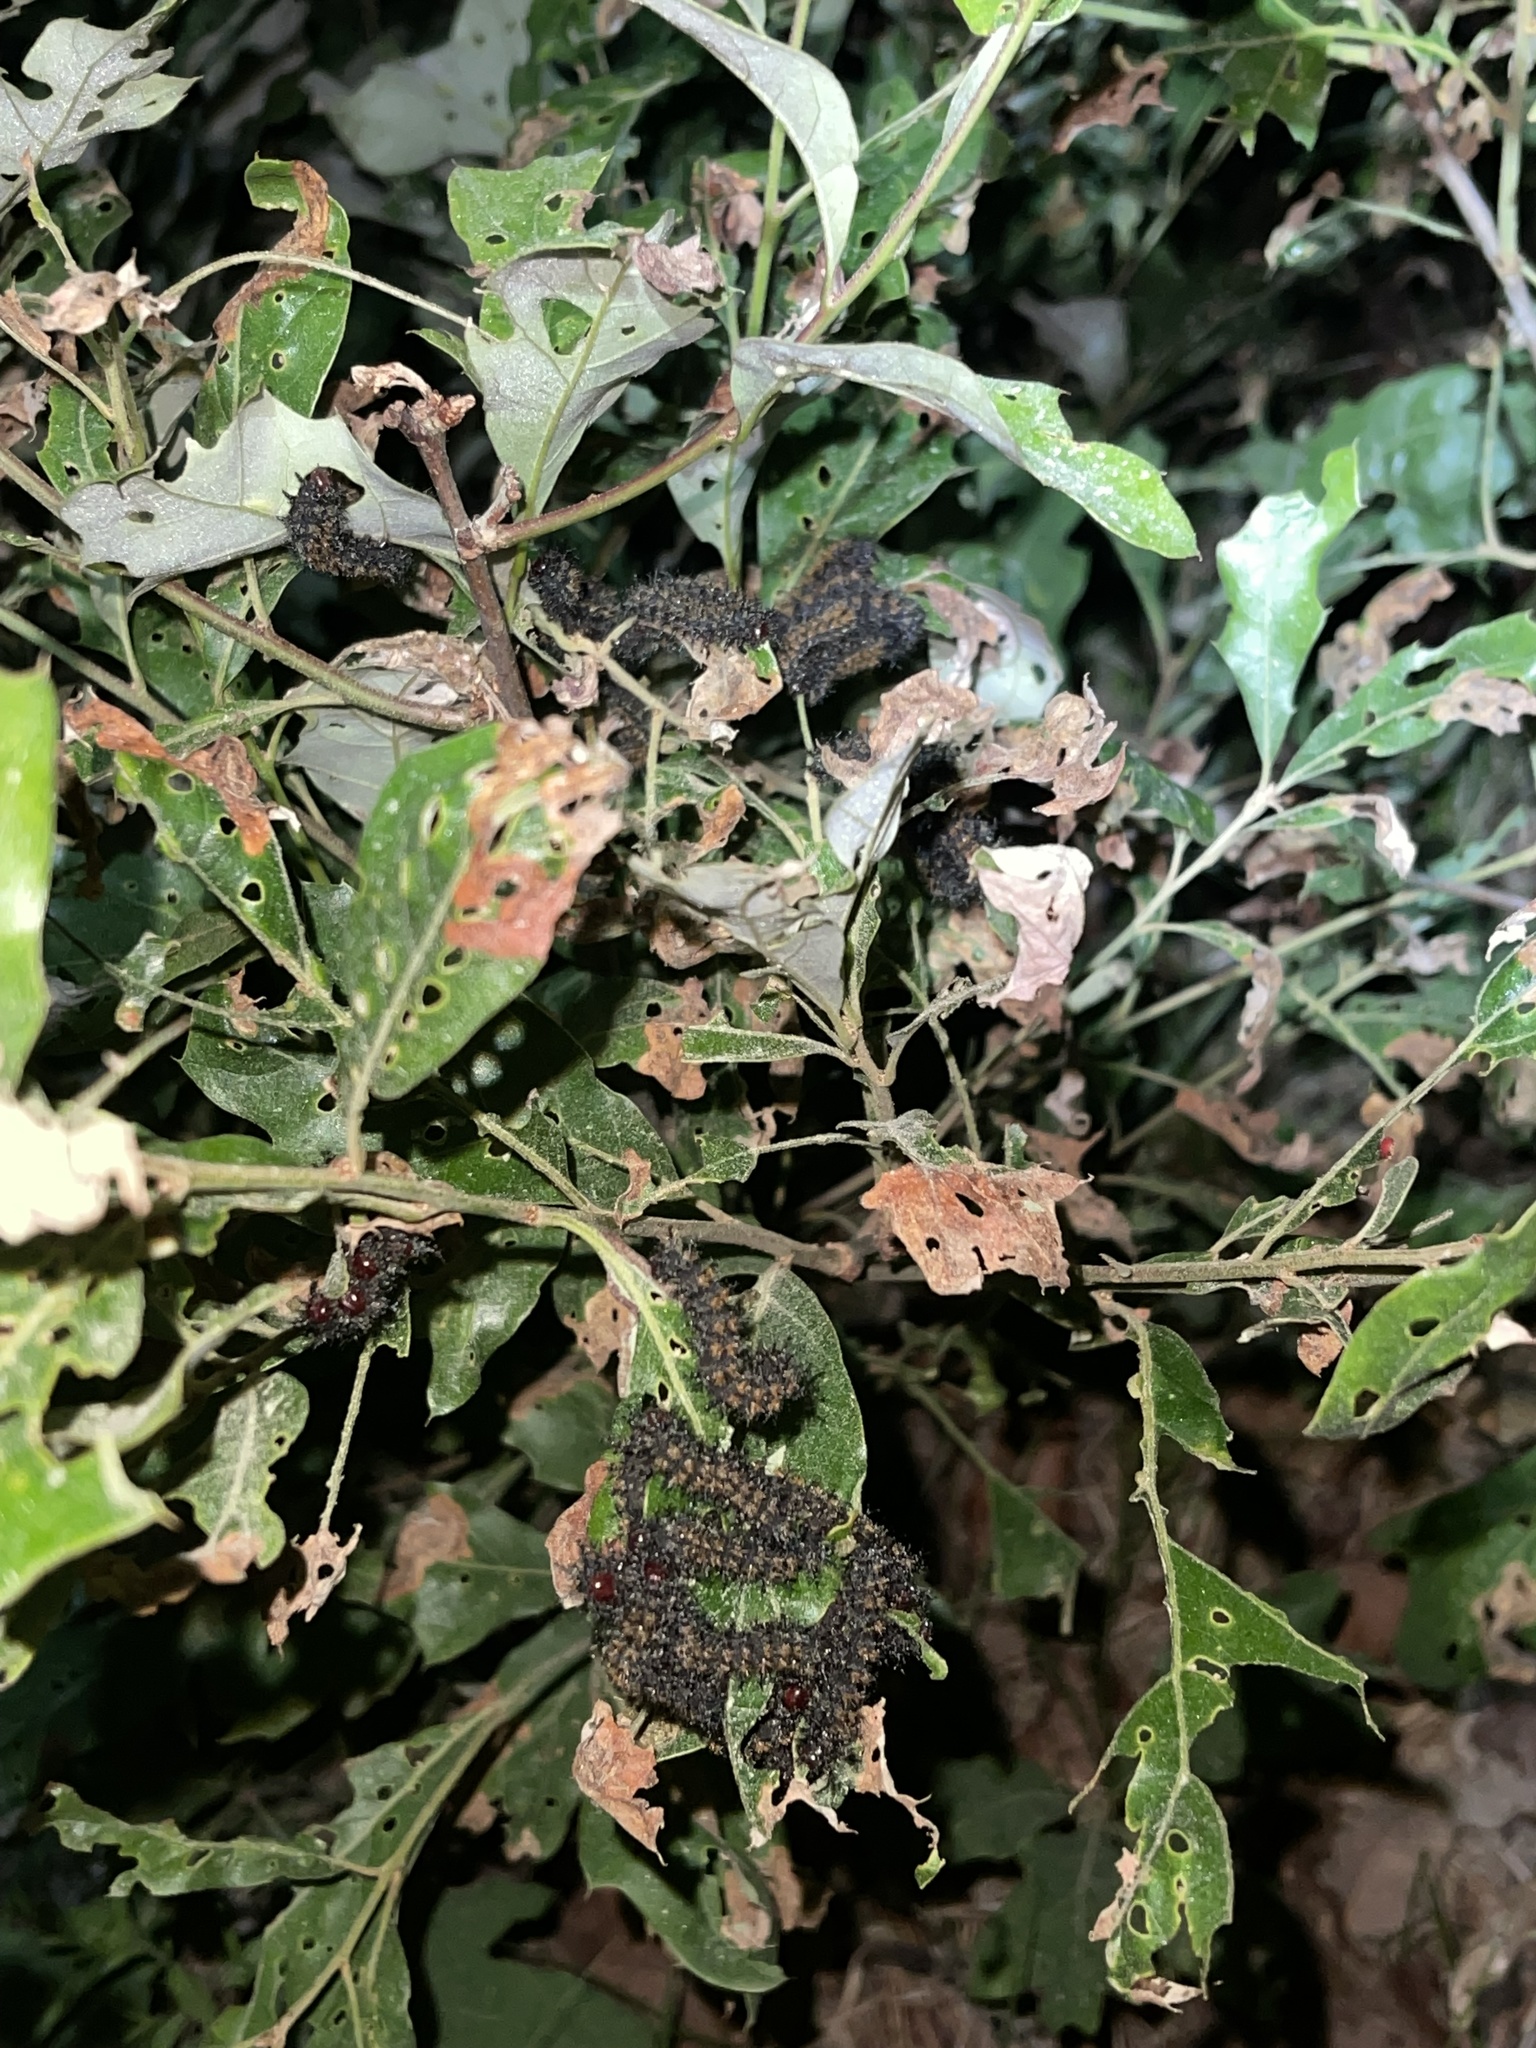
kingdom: Animalia
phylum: Arthropoda
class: Insecta
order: Lepidoptera
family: Saturniidae
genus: Hemileuca
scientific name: Hemileuca maia
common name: Eastern buckmoth
